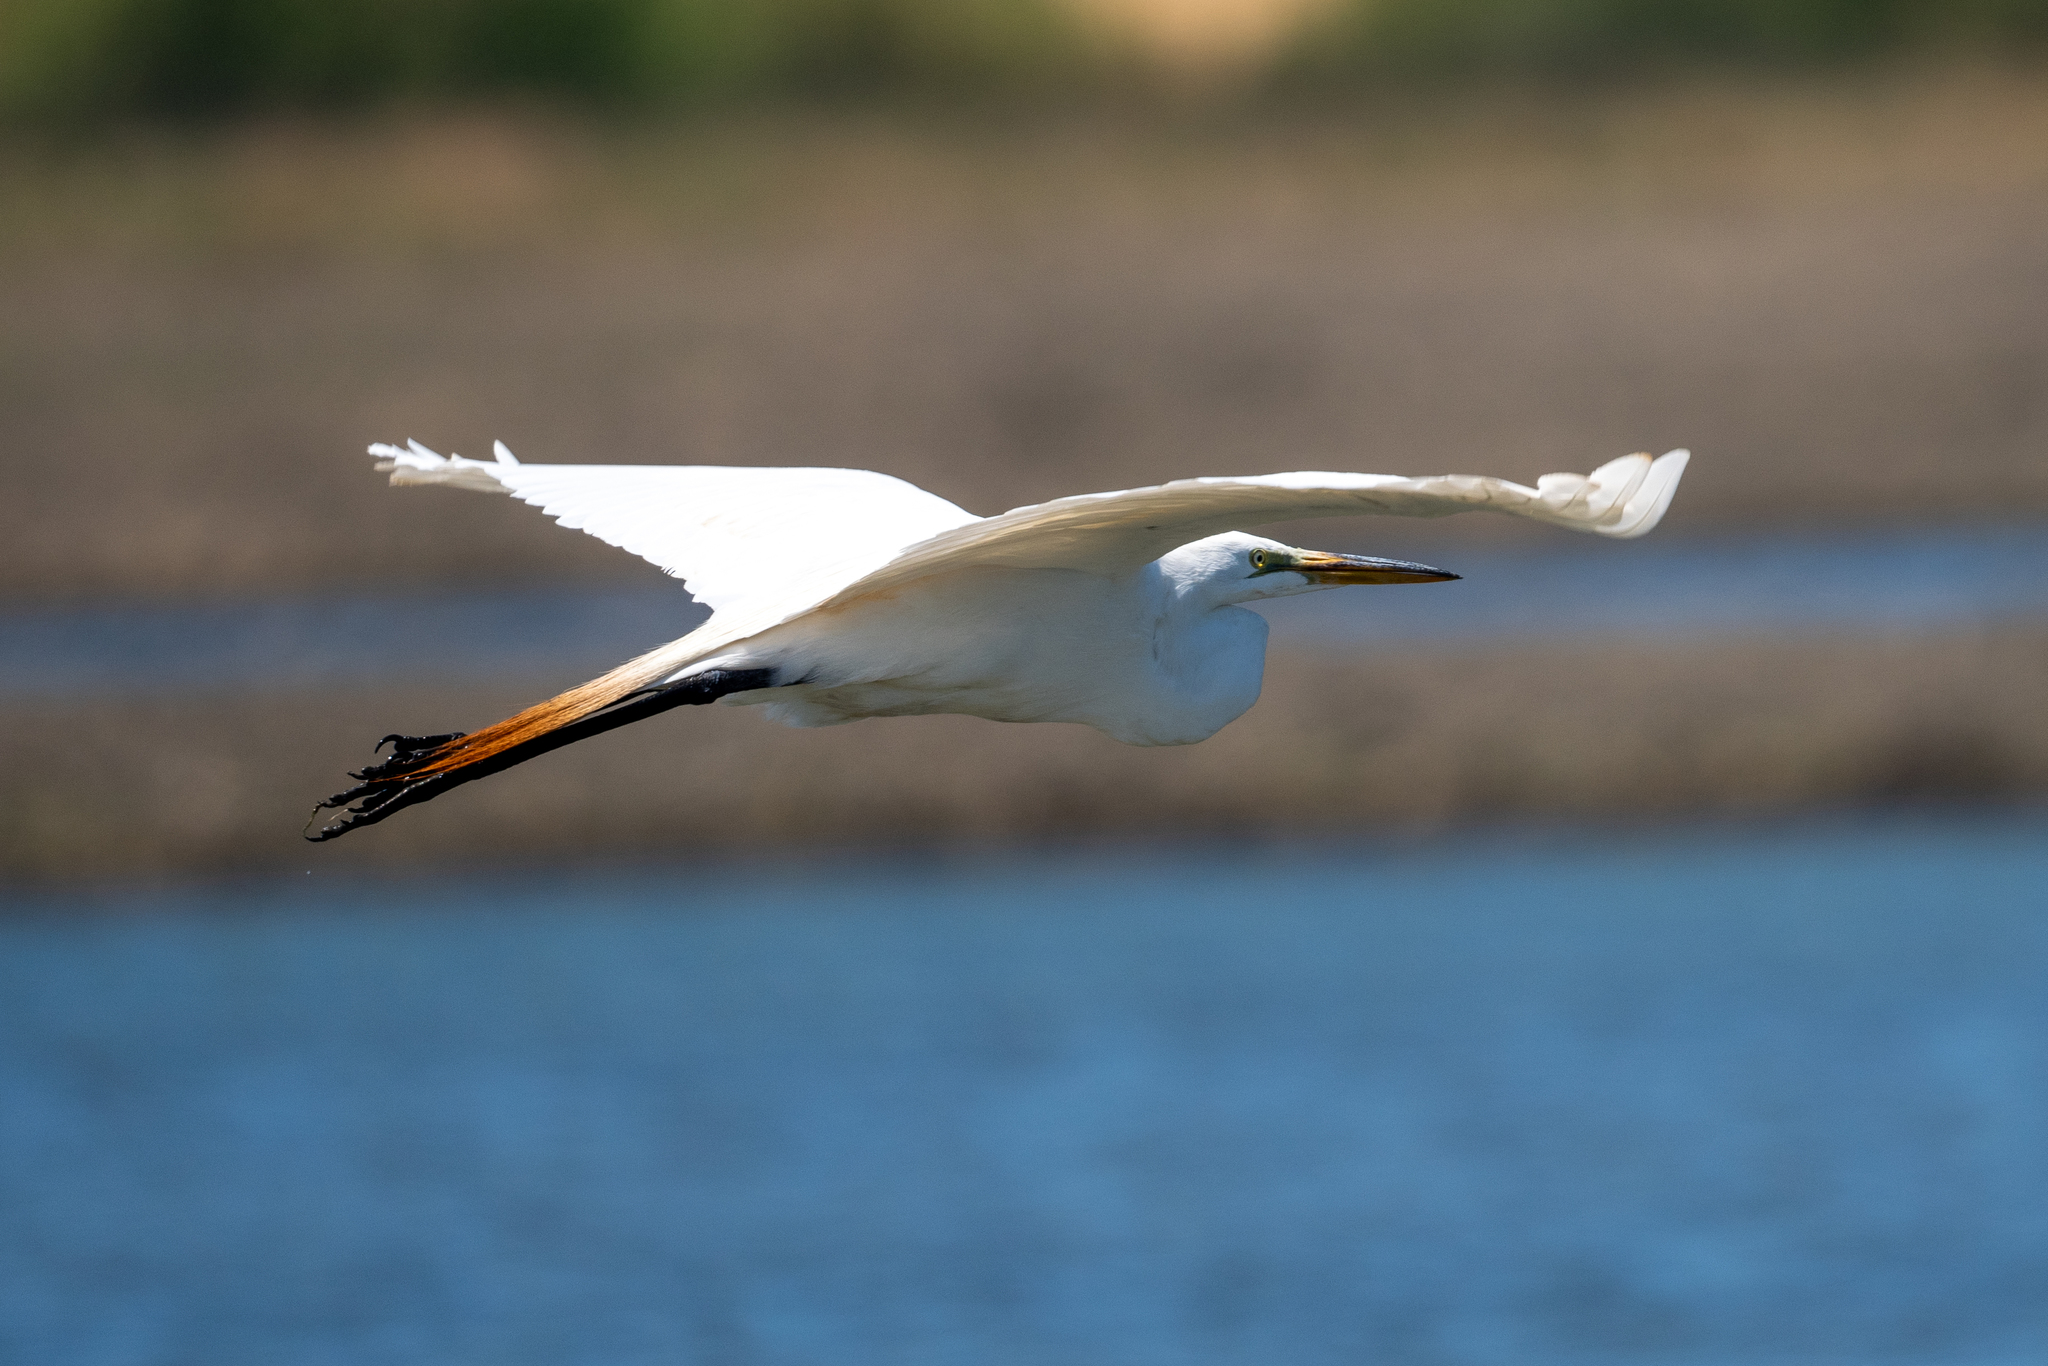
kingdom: Animalia
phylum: Chordata
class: Aves
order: Pelecaniformes
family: Ardeidae
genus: Egretta
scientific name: Egretta thula
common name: Snowy egret
